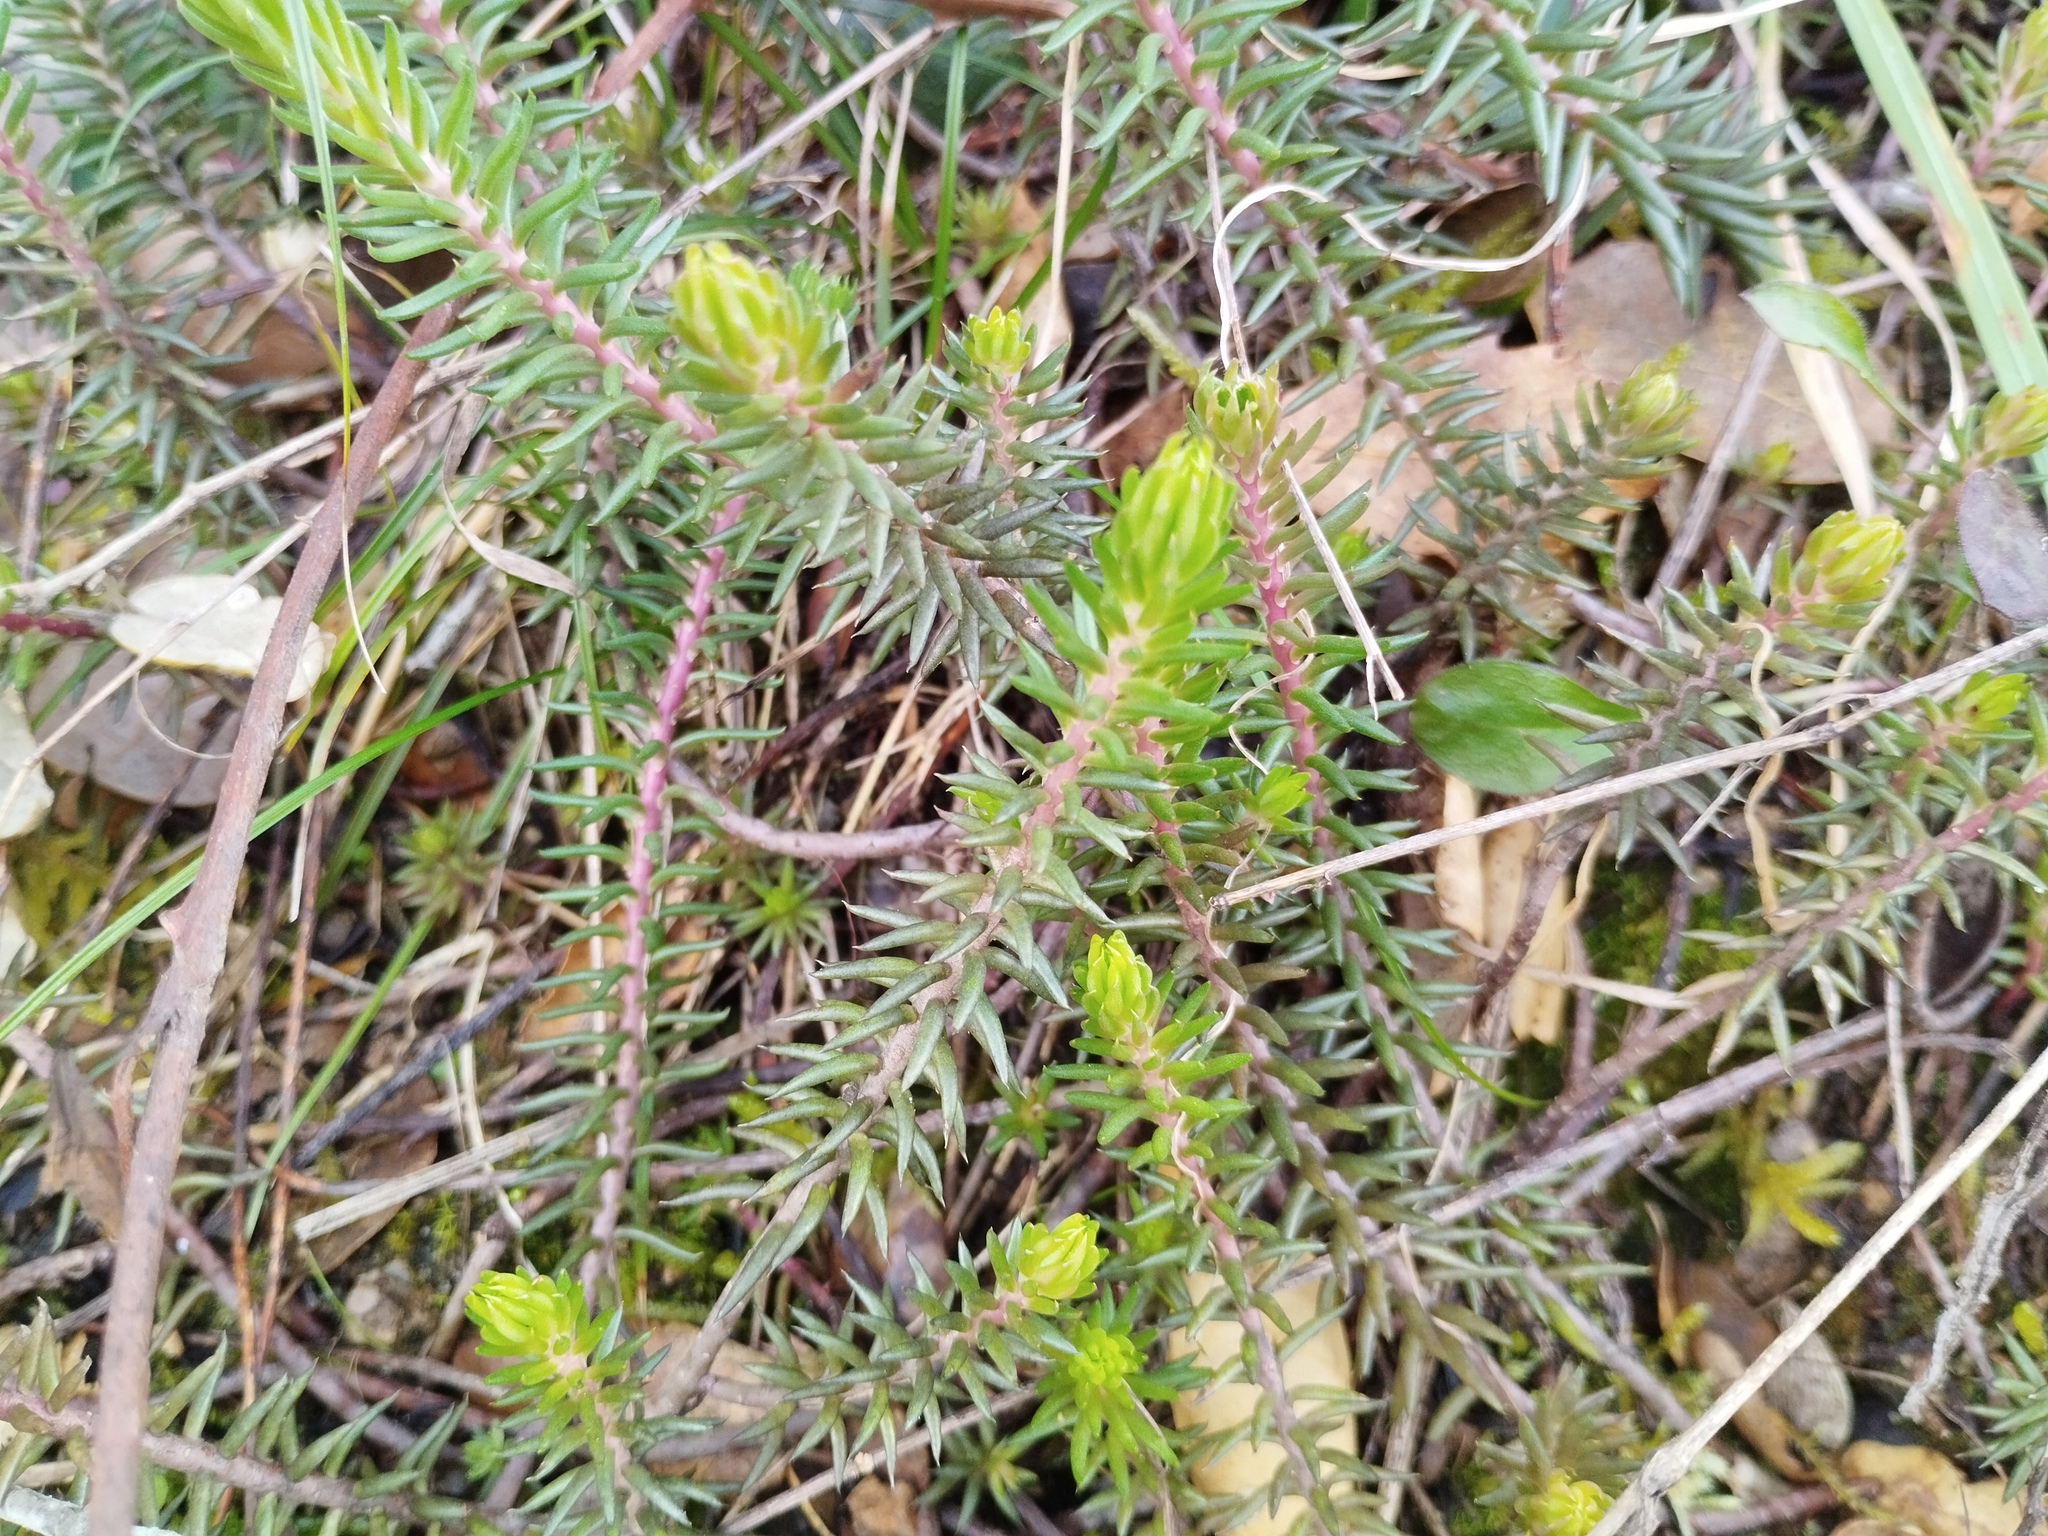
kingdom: Plantae
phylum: Tracheophyta
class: Magnoliopsida
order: Saxifragales
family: Crassulaceae
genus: Petrosedum
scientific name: Petrosedum rupestre
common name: Jenny's stonecrop
